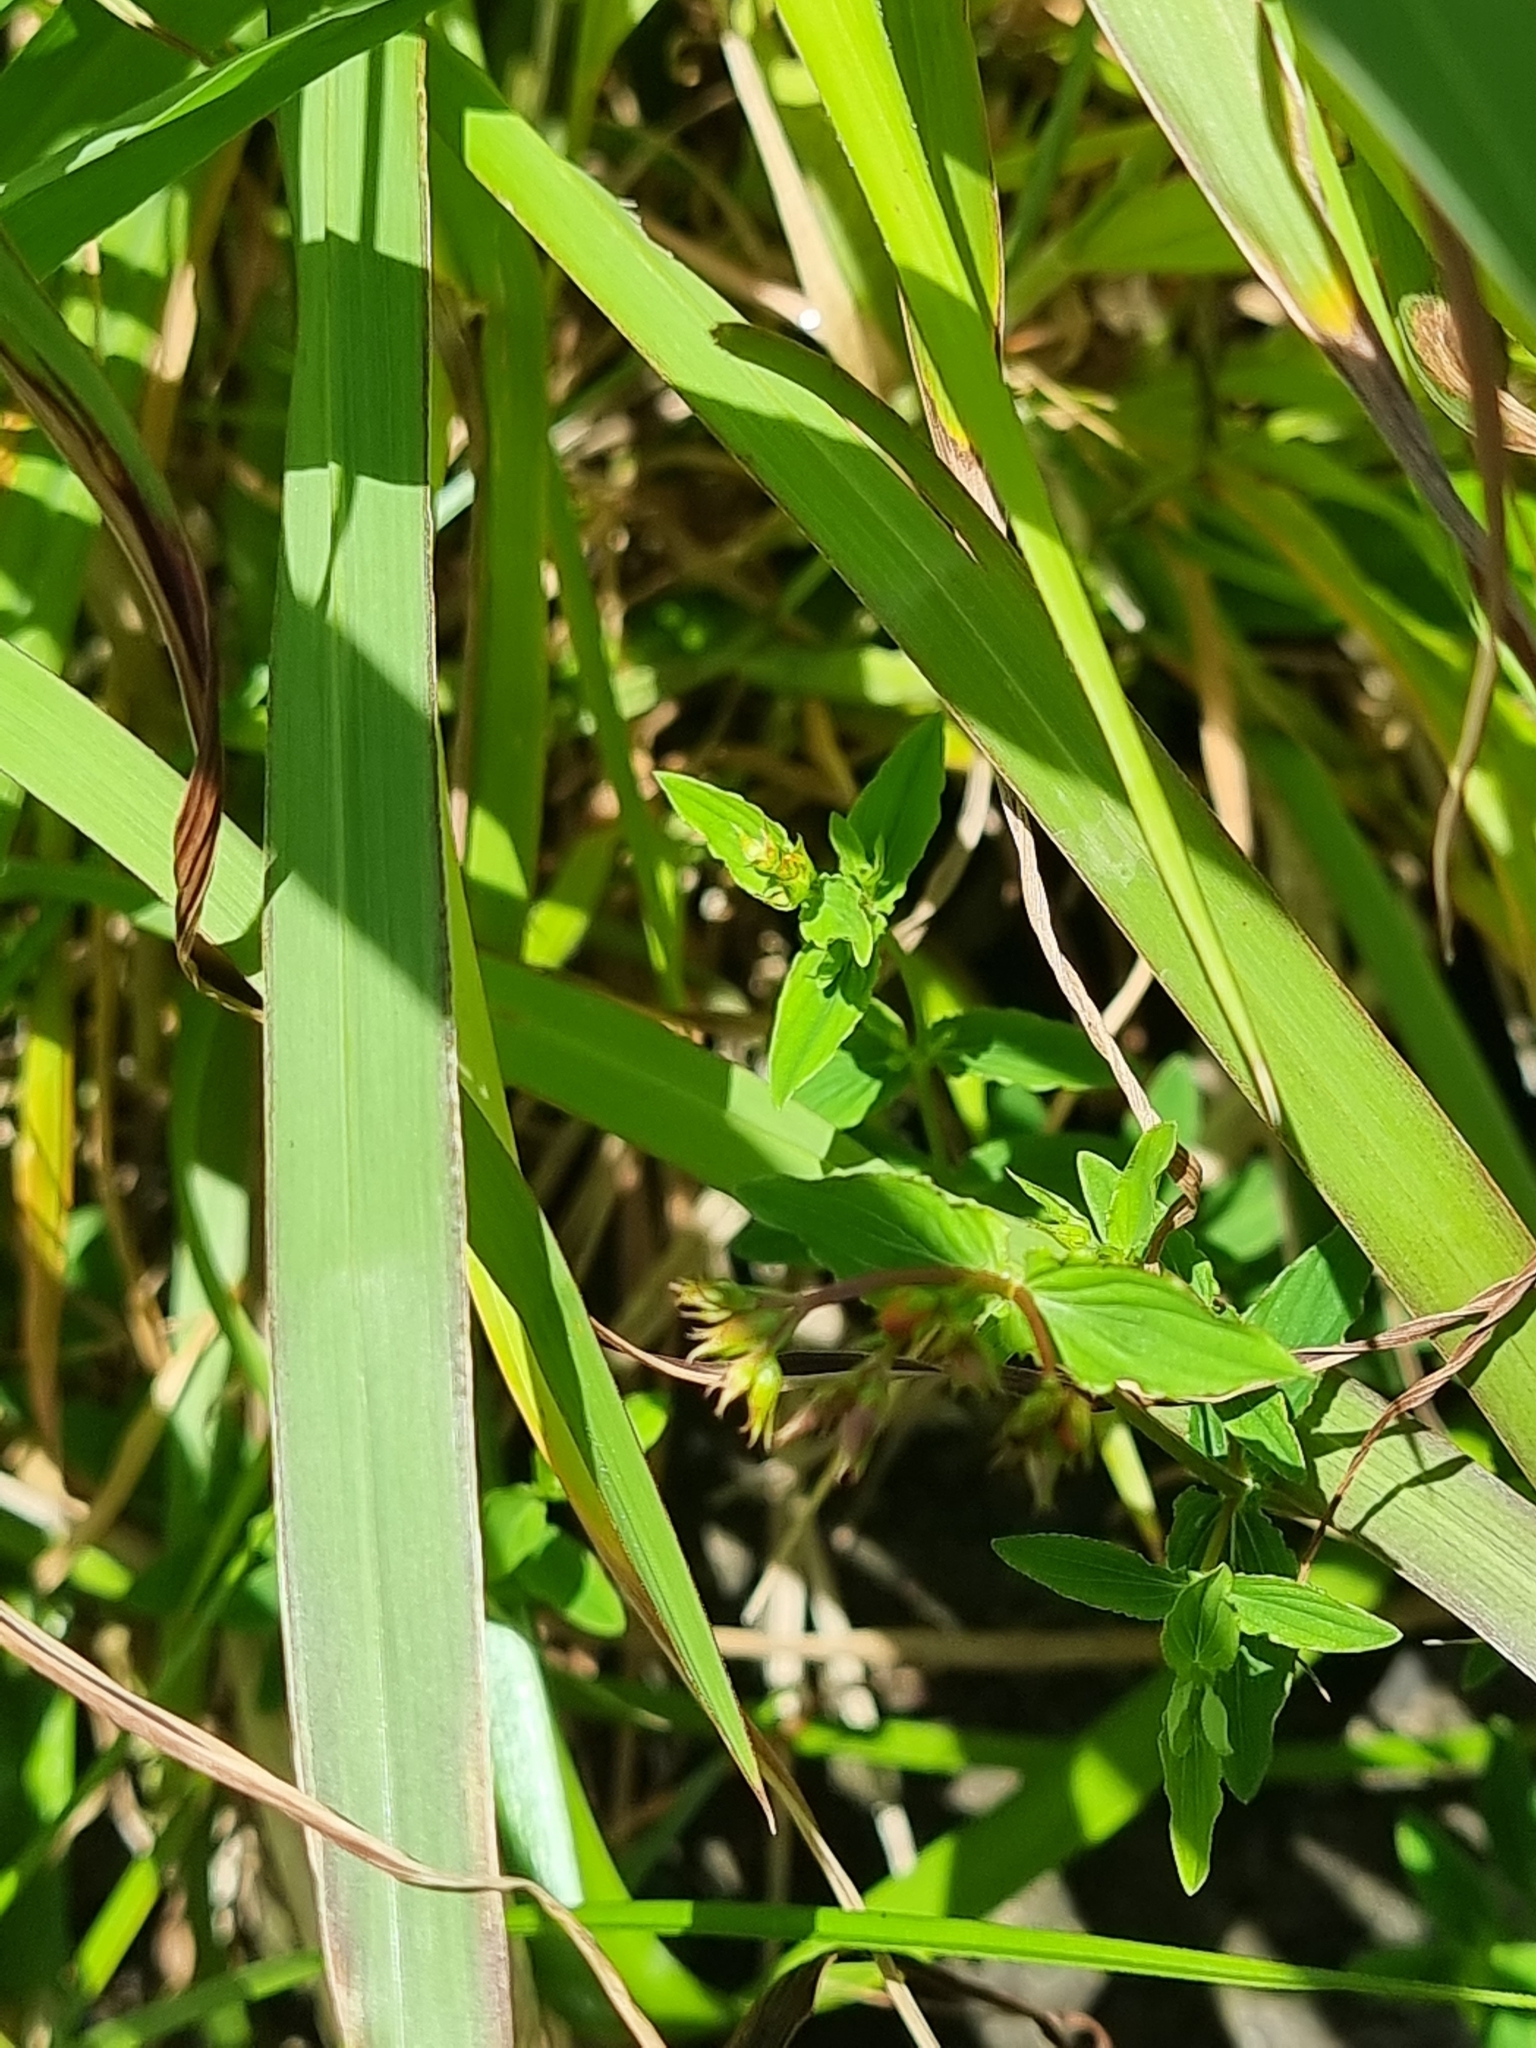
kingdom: Plantae
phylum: Tracheophyta
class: Magnoliopsida
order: Malpighiales
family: Hypericaceae
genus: Hypericum
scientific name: Hypericum undulatum
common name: Wavy st. john's-wort
